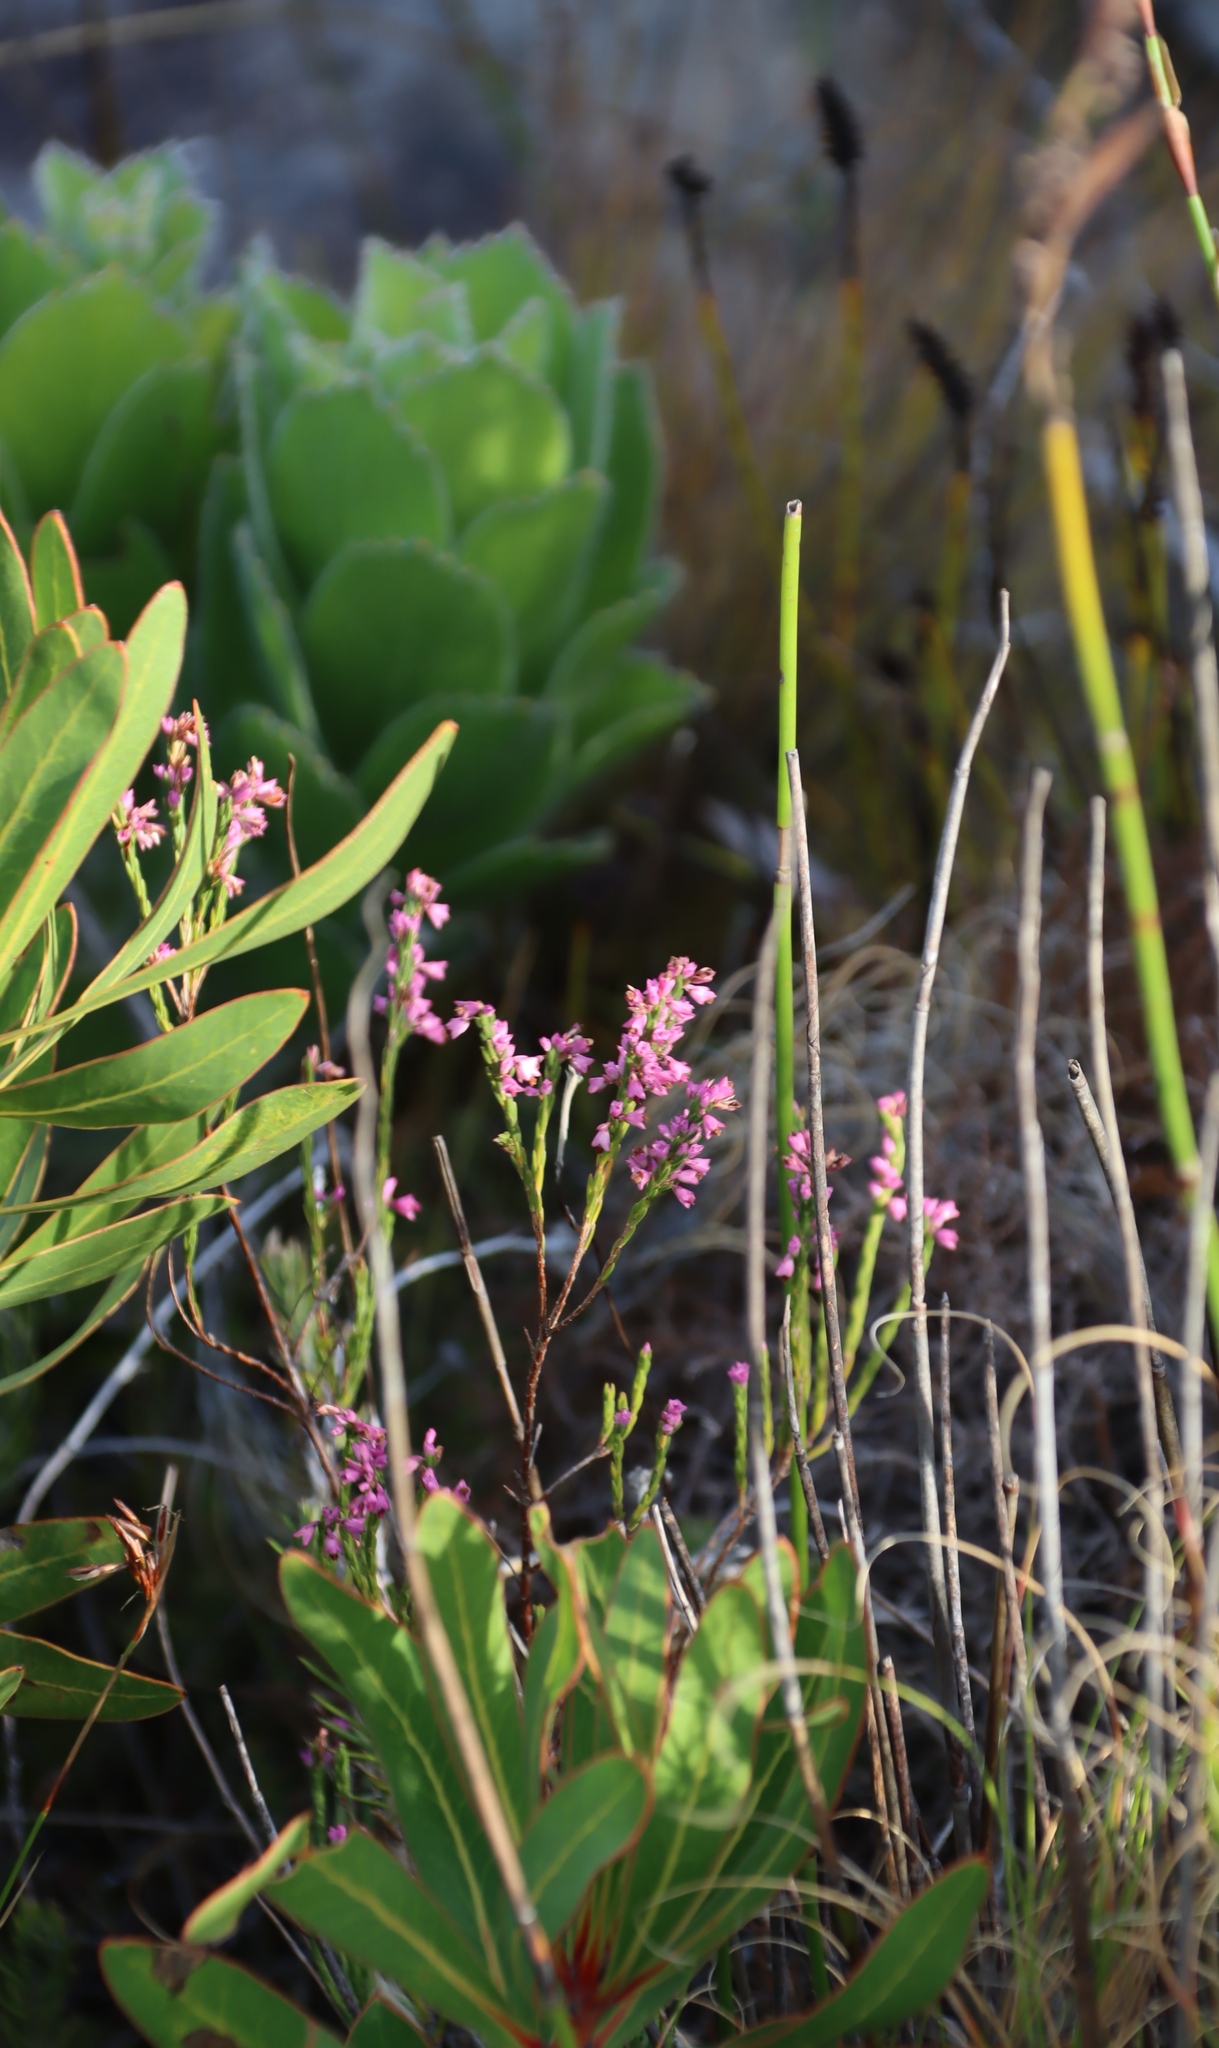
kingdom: Plantae
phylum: Tracheophyta
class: Magnoliopsida
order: Ericales
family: Ericaceae
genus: Erica
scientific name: Erica corifolia
